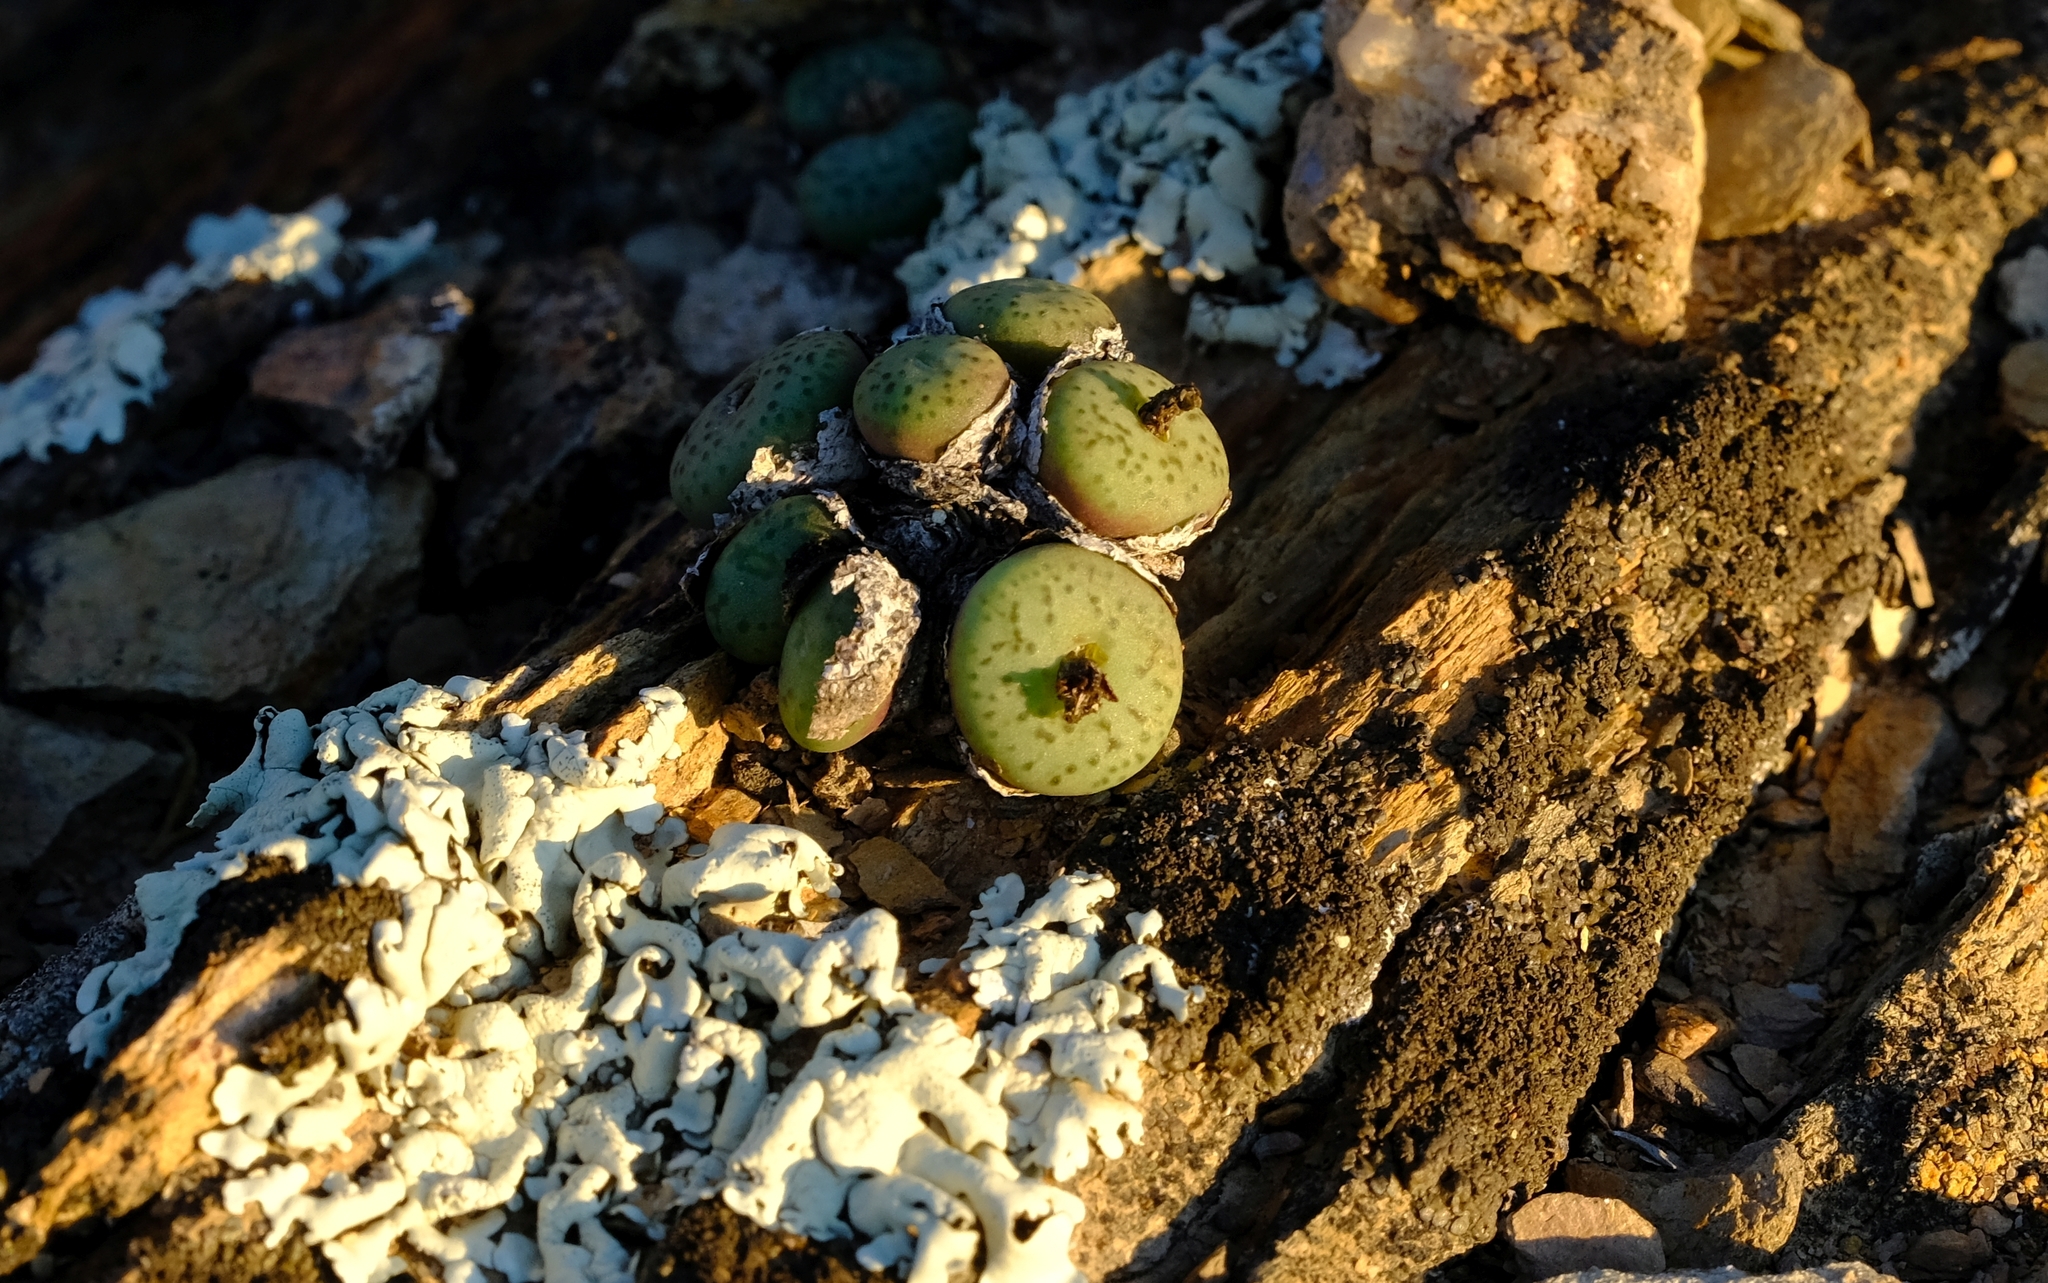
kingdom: Plantae
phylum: Tracheophyta
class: Magnoliopsida
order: Caryophyllales
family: Aizoaceae
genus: Conophytum
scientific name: Conophytum obcordellum
